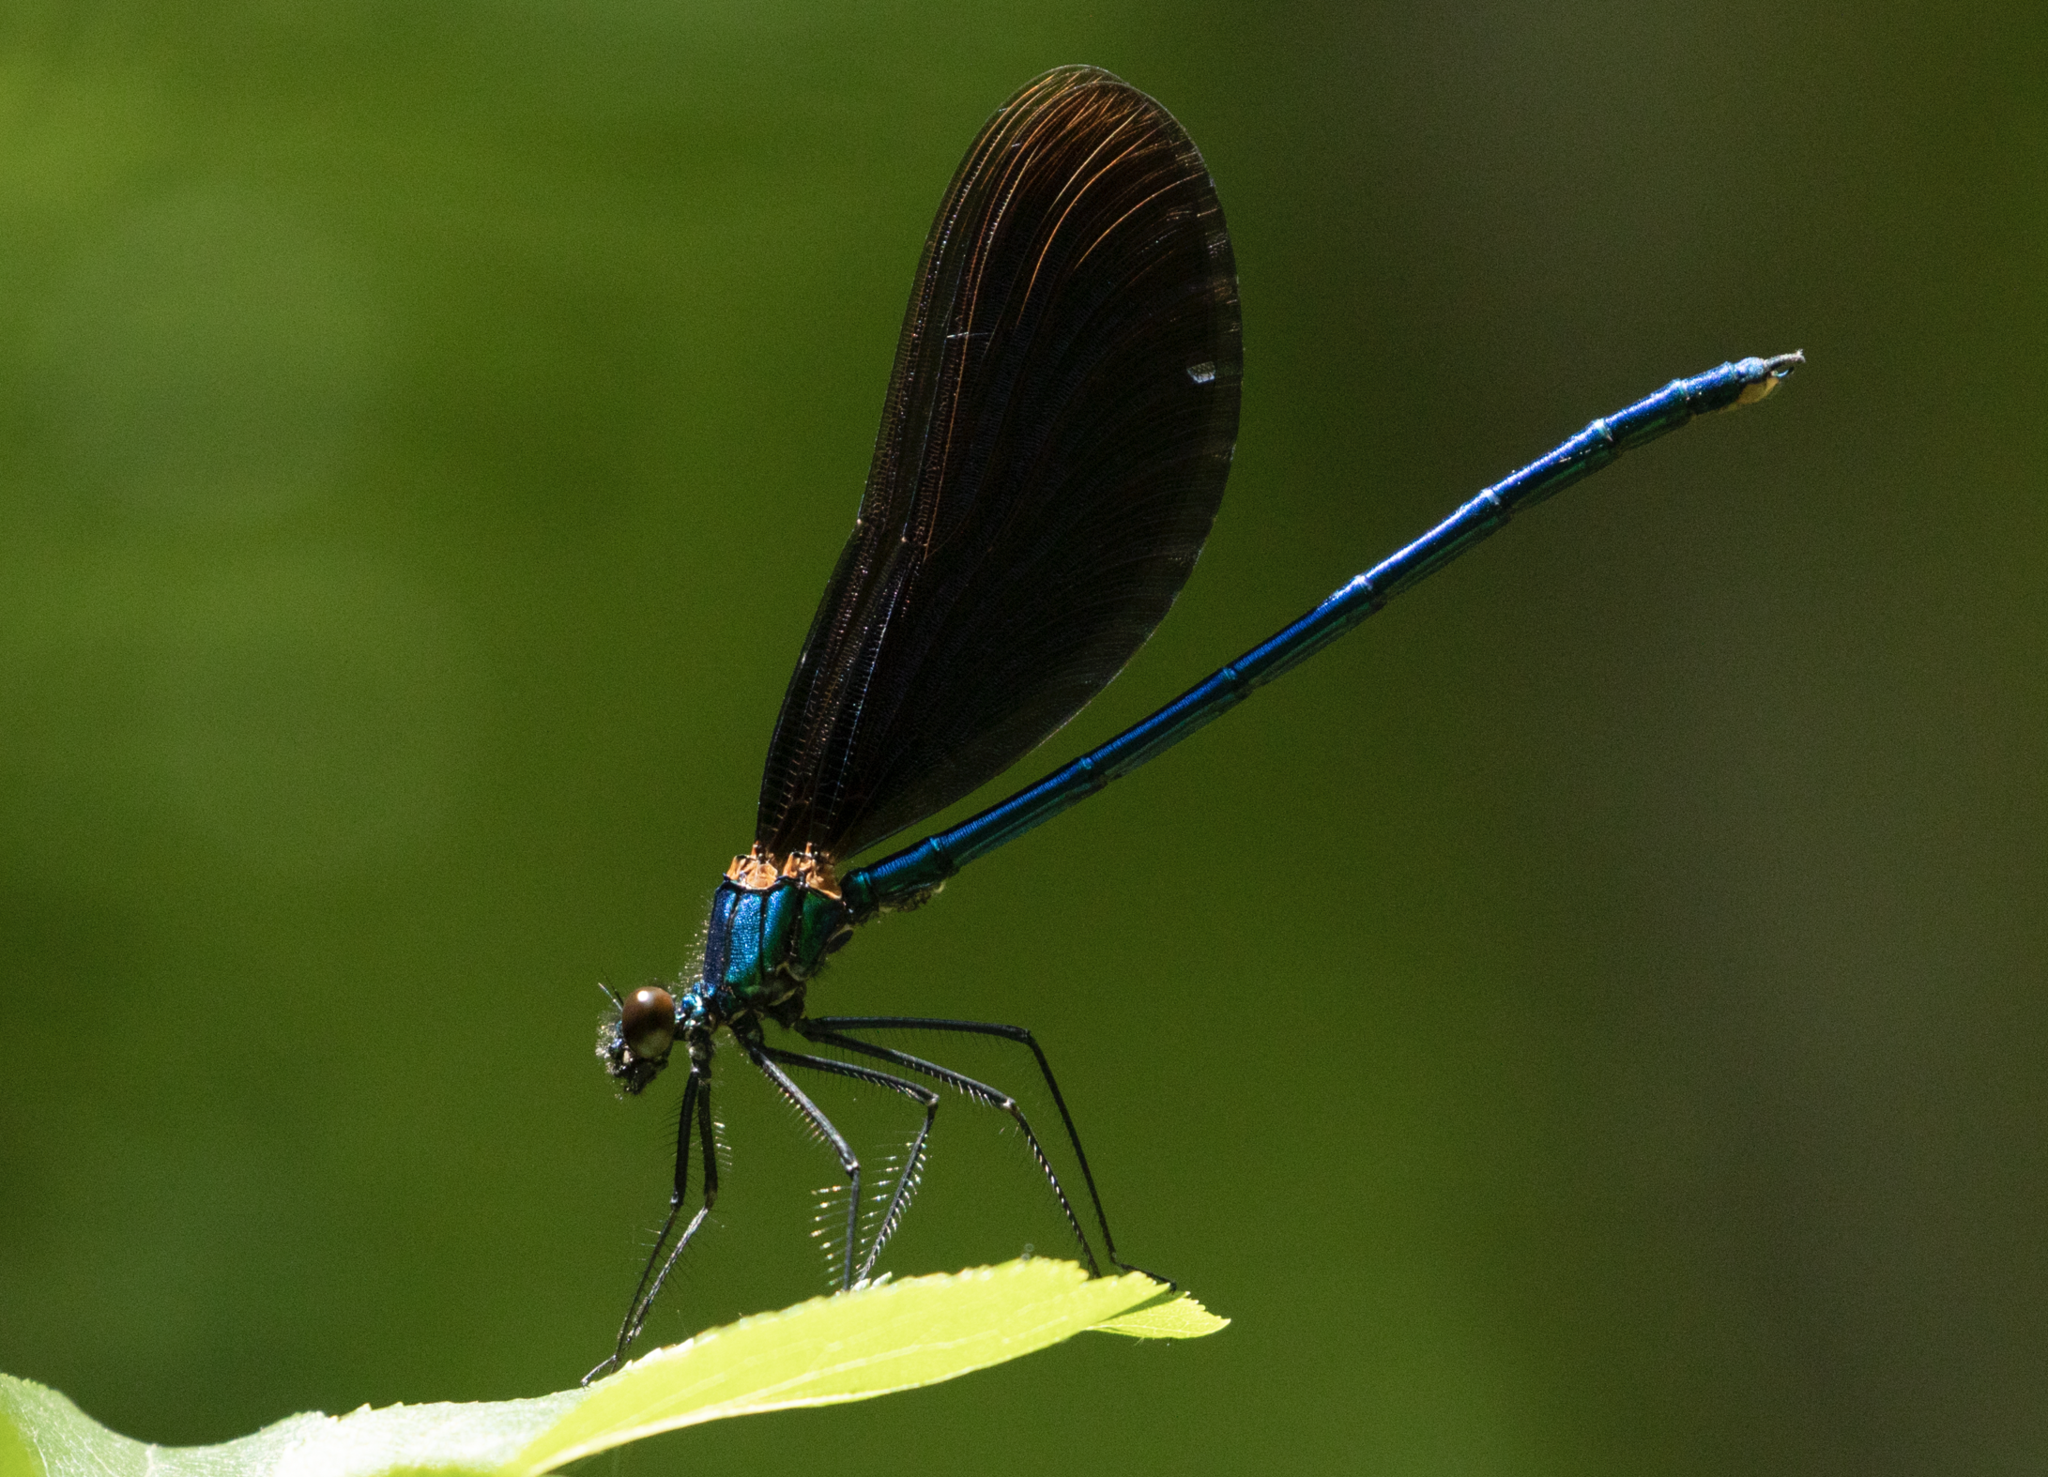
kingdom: Animalia
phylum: Arthropoda
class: Insecta
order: Odonata
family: Calopterygidae
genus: Calopteryx
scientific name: Calopteryx virgo
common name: Beautiful demoiselle
